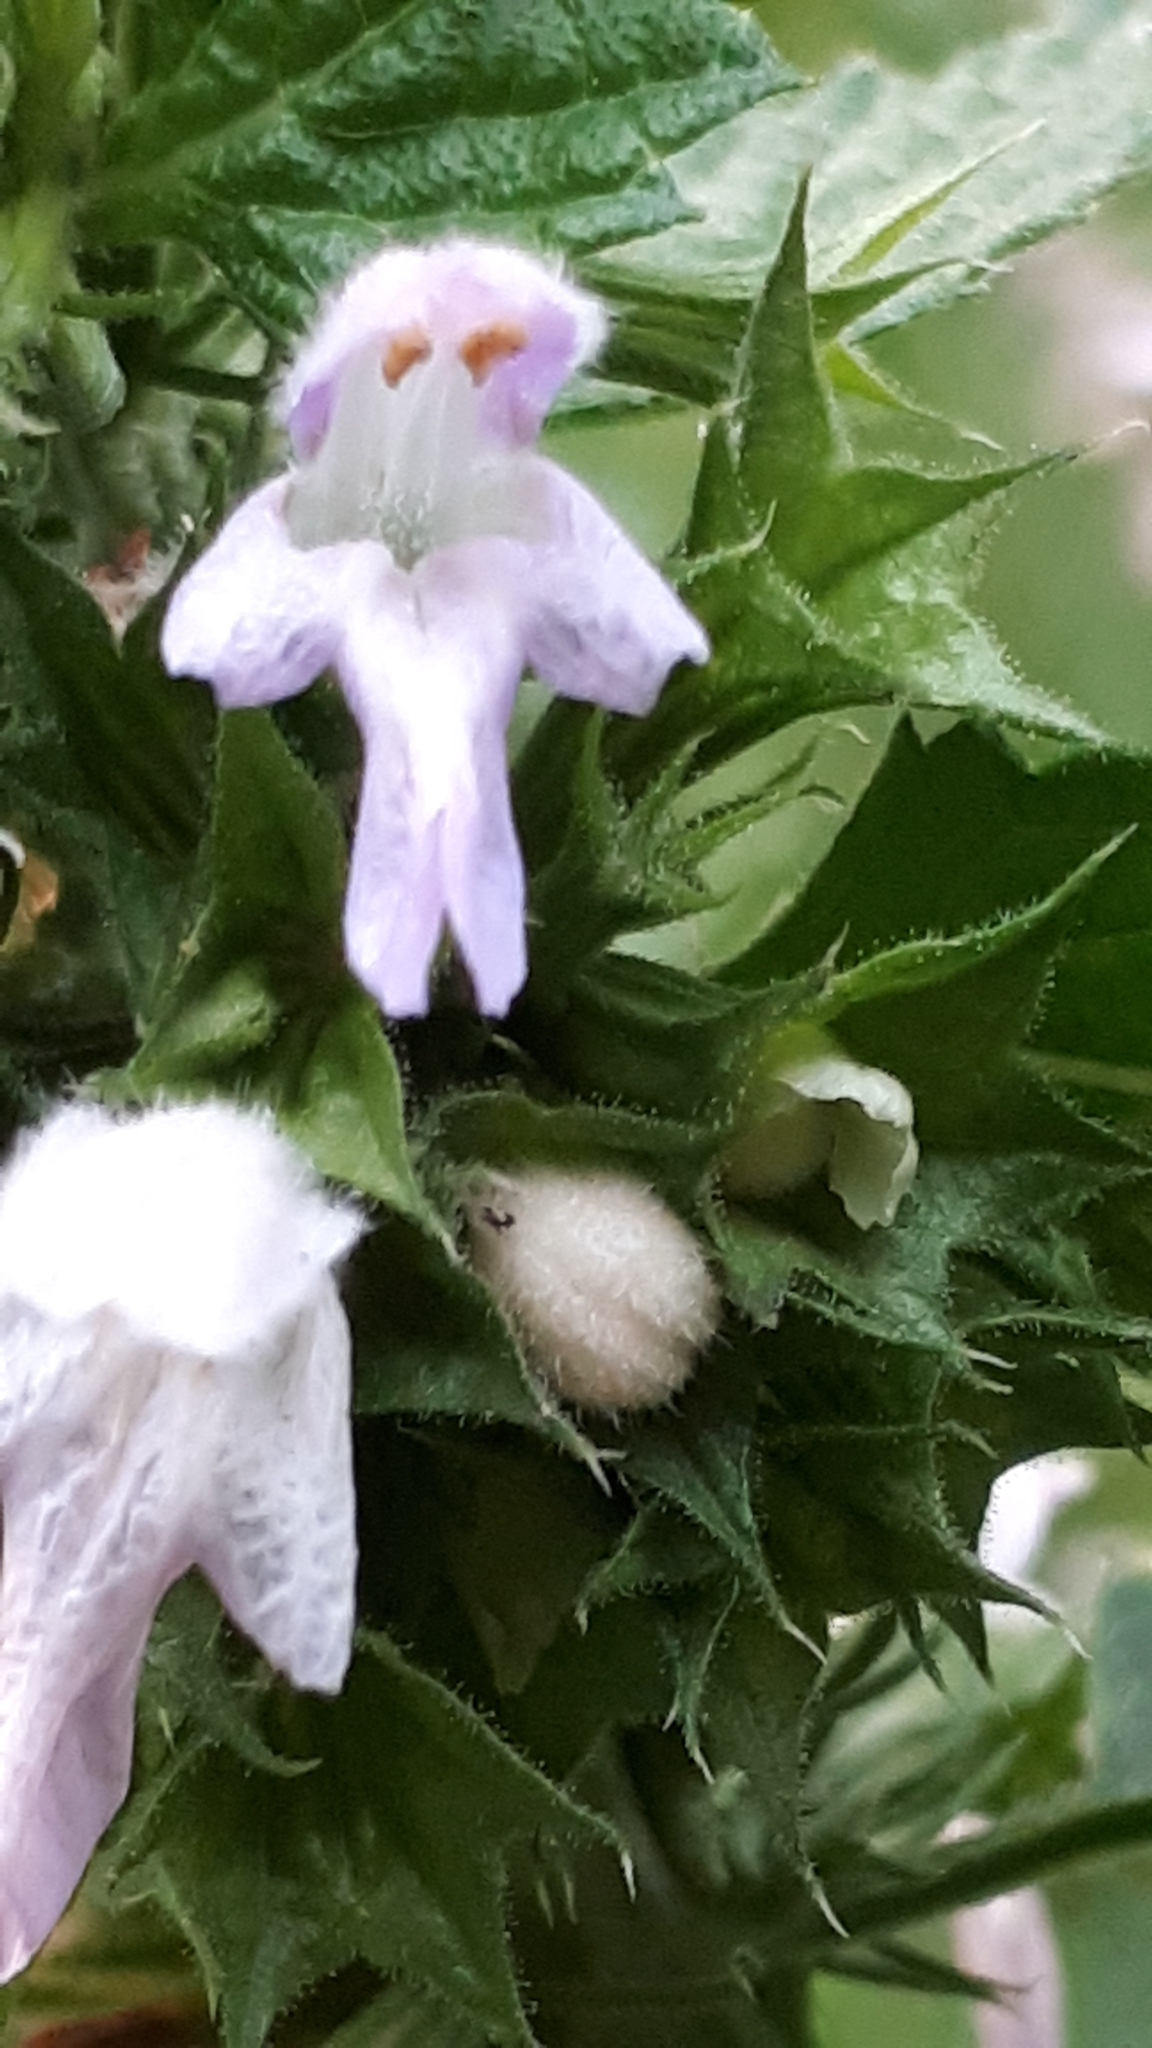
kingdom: Plantae
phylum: Tracheophyta
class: Magnoliopsida
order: Lamiales
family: Lamiaceae
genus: Ballota
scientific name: Ballota nigra
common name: Black horehound
